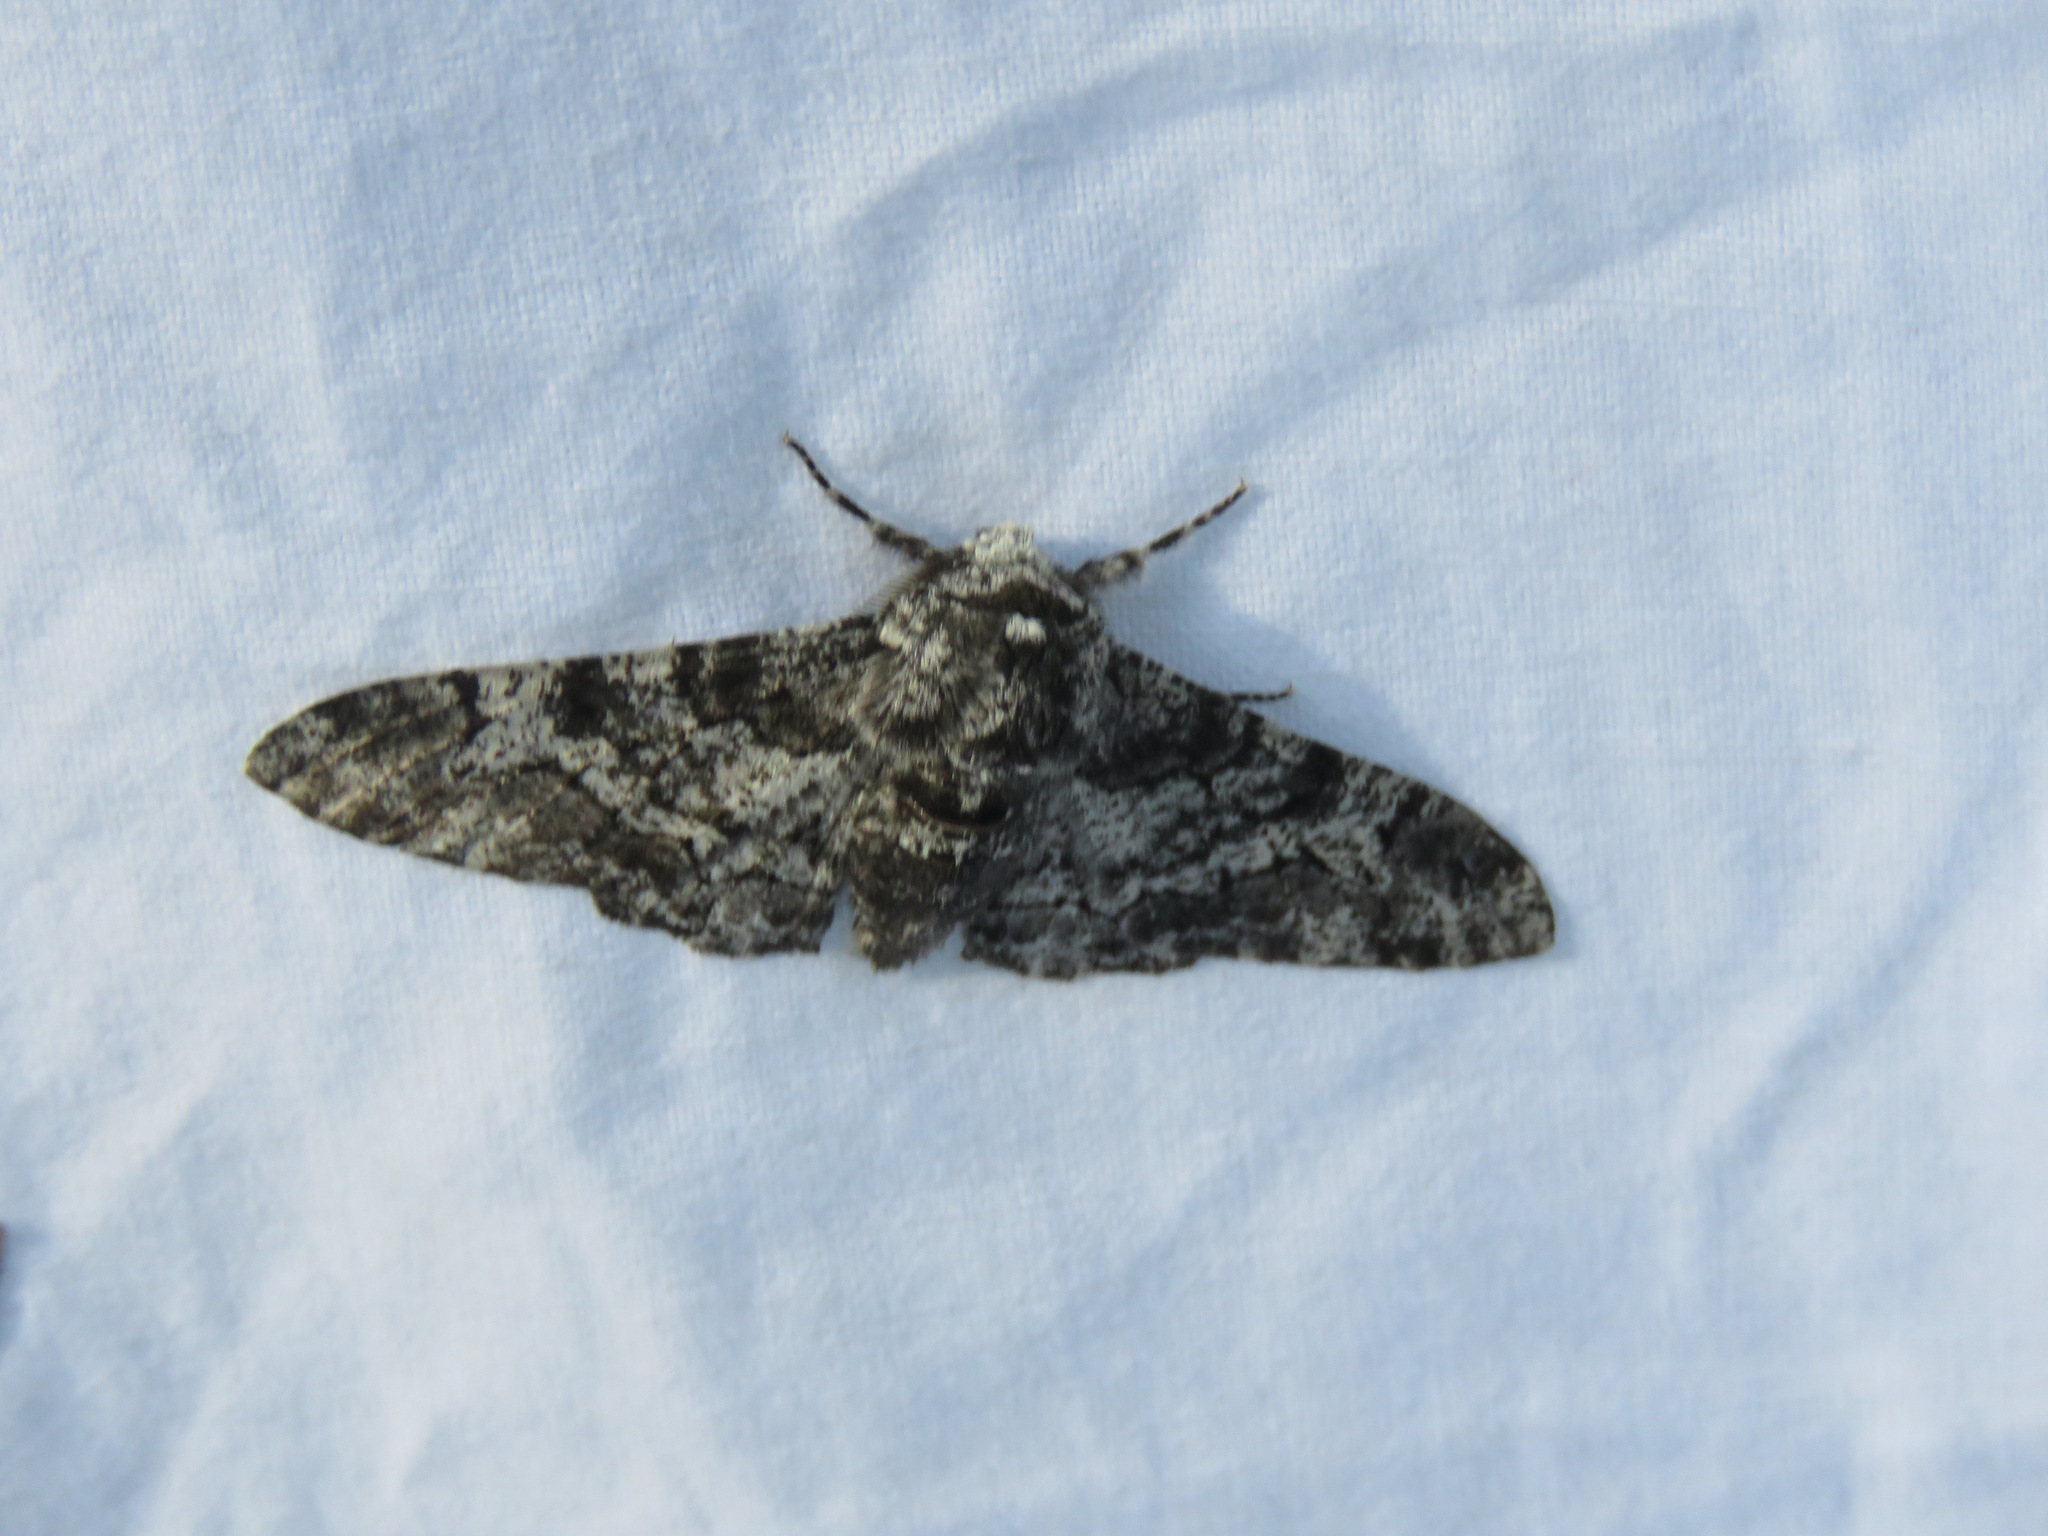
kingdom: Animalia
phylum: Arthropoda
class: Insecta
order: Lepidoptera
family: Geometridae
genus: Biston
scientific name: Biston betularia
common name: Peppered moth
